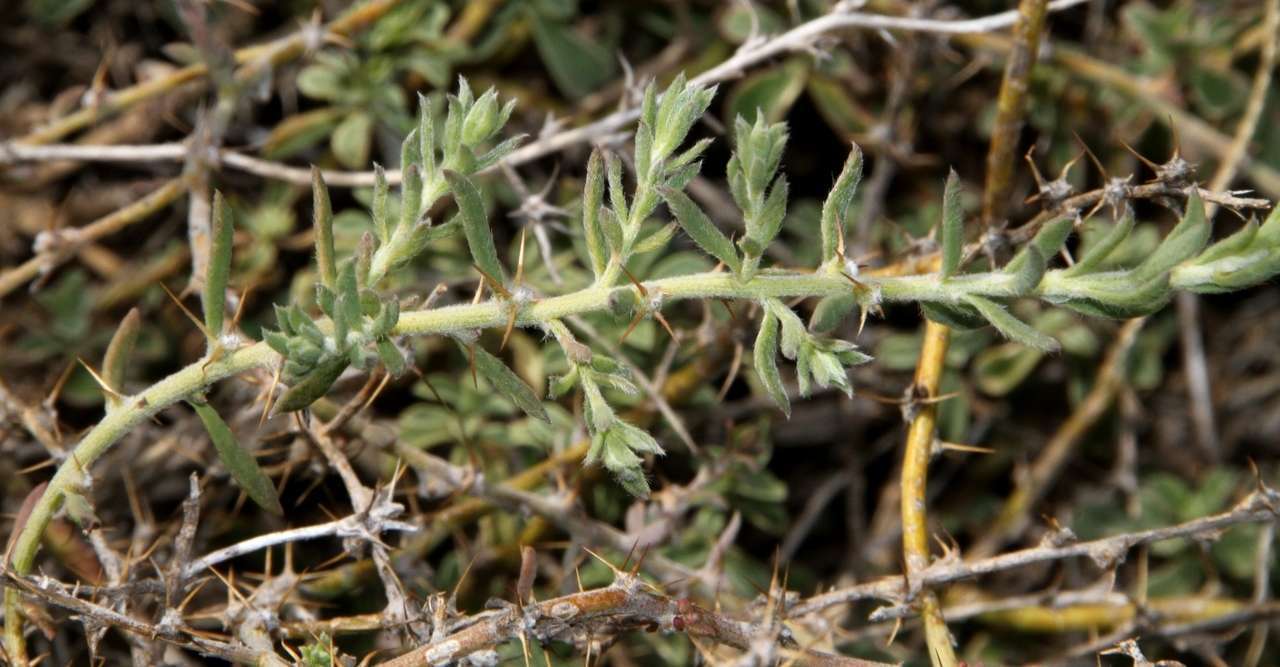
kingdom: Plantae
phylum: Tracheophyta
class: Magnoliopsida
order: Caryophyllales
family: Amaranthaceae
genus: Sclerolaena
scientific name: Sclerolaena muricata
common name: Roly-poly
